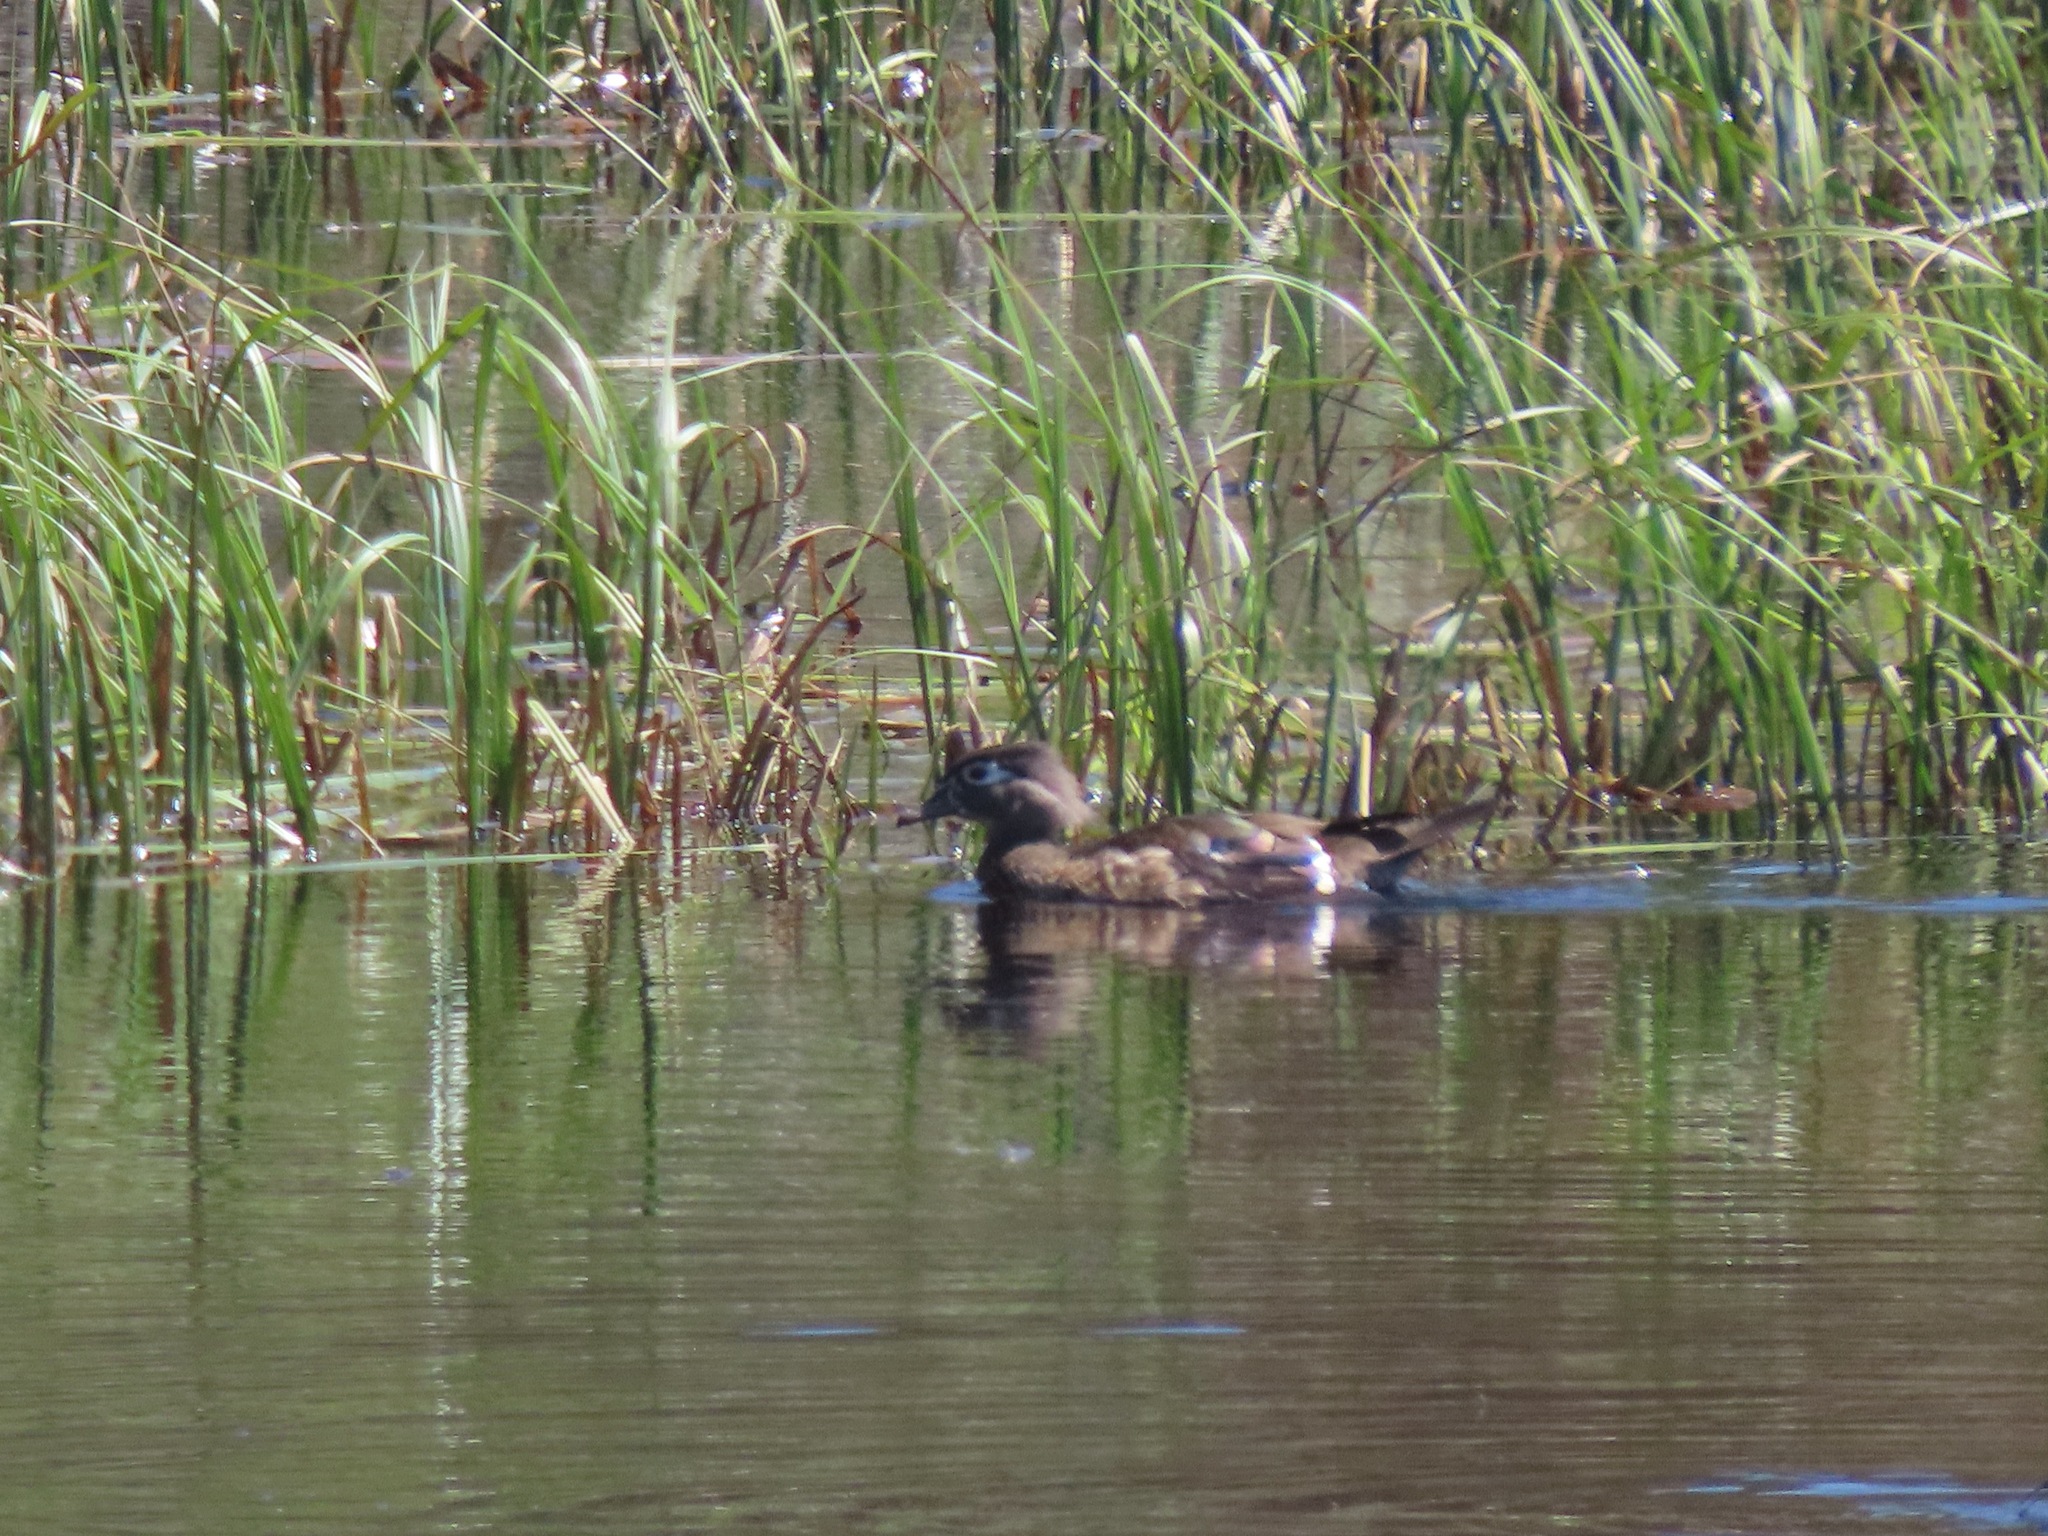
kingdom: Animalia
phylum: Chordata
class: Aves
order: Anseriformes
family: Anatidae
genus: Aix
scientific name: Aix sponsa
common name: Wood duck
